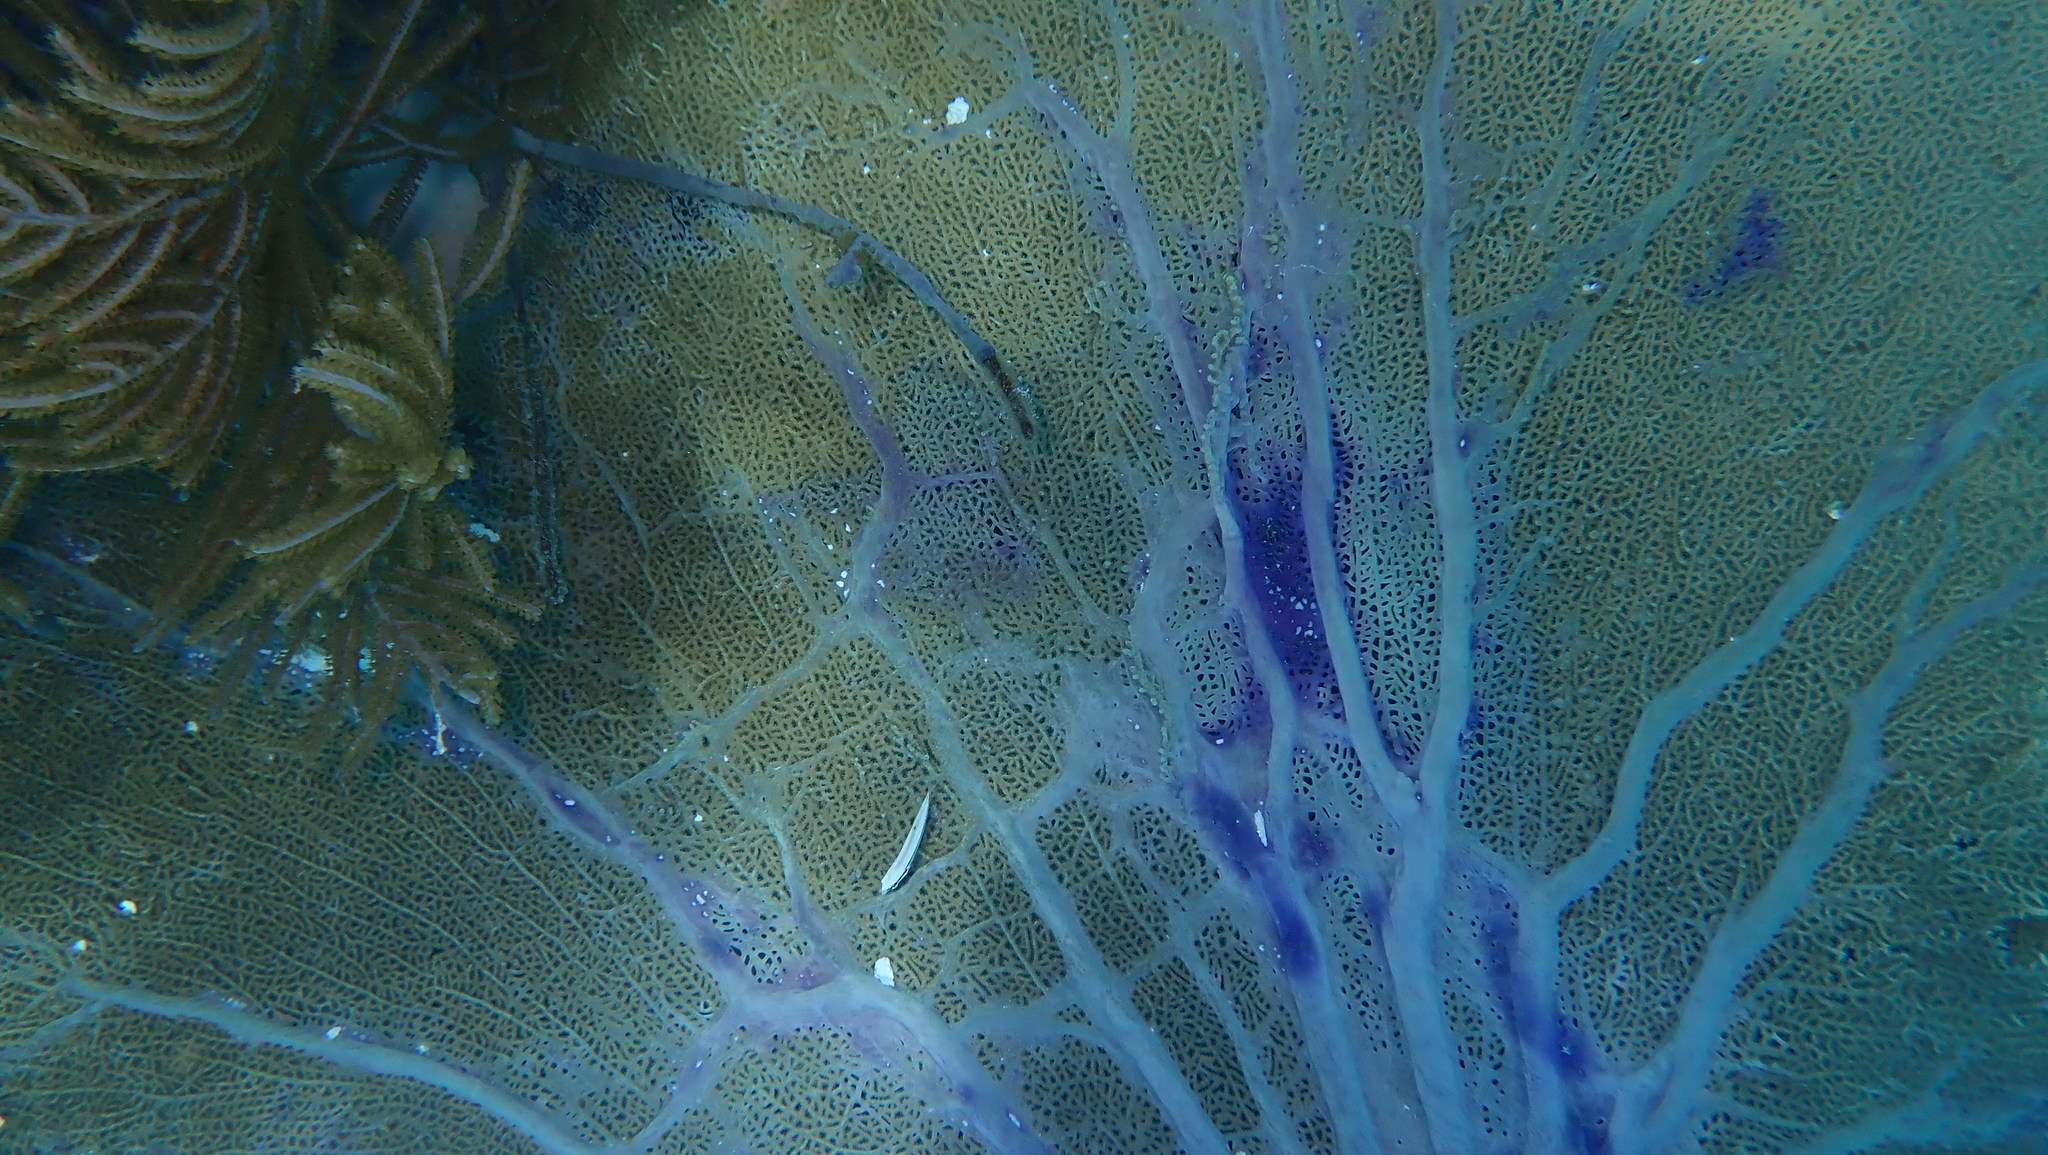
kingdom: Animalia
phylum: Cnidaria
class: Anthozoa
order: Malacalcyonacea
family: Gorgoniidae
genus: Gorgonia
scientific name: Gorgonia ventalina
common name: Common sea fan
